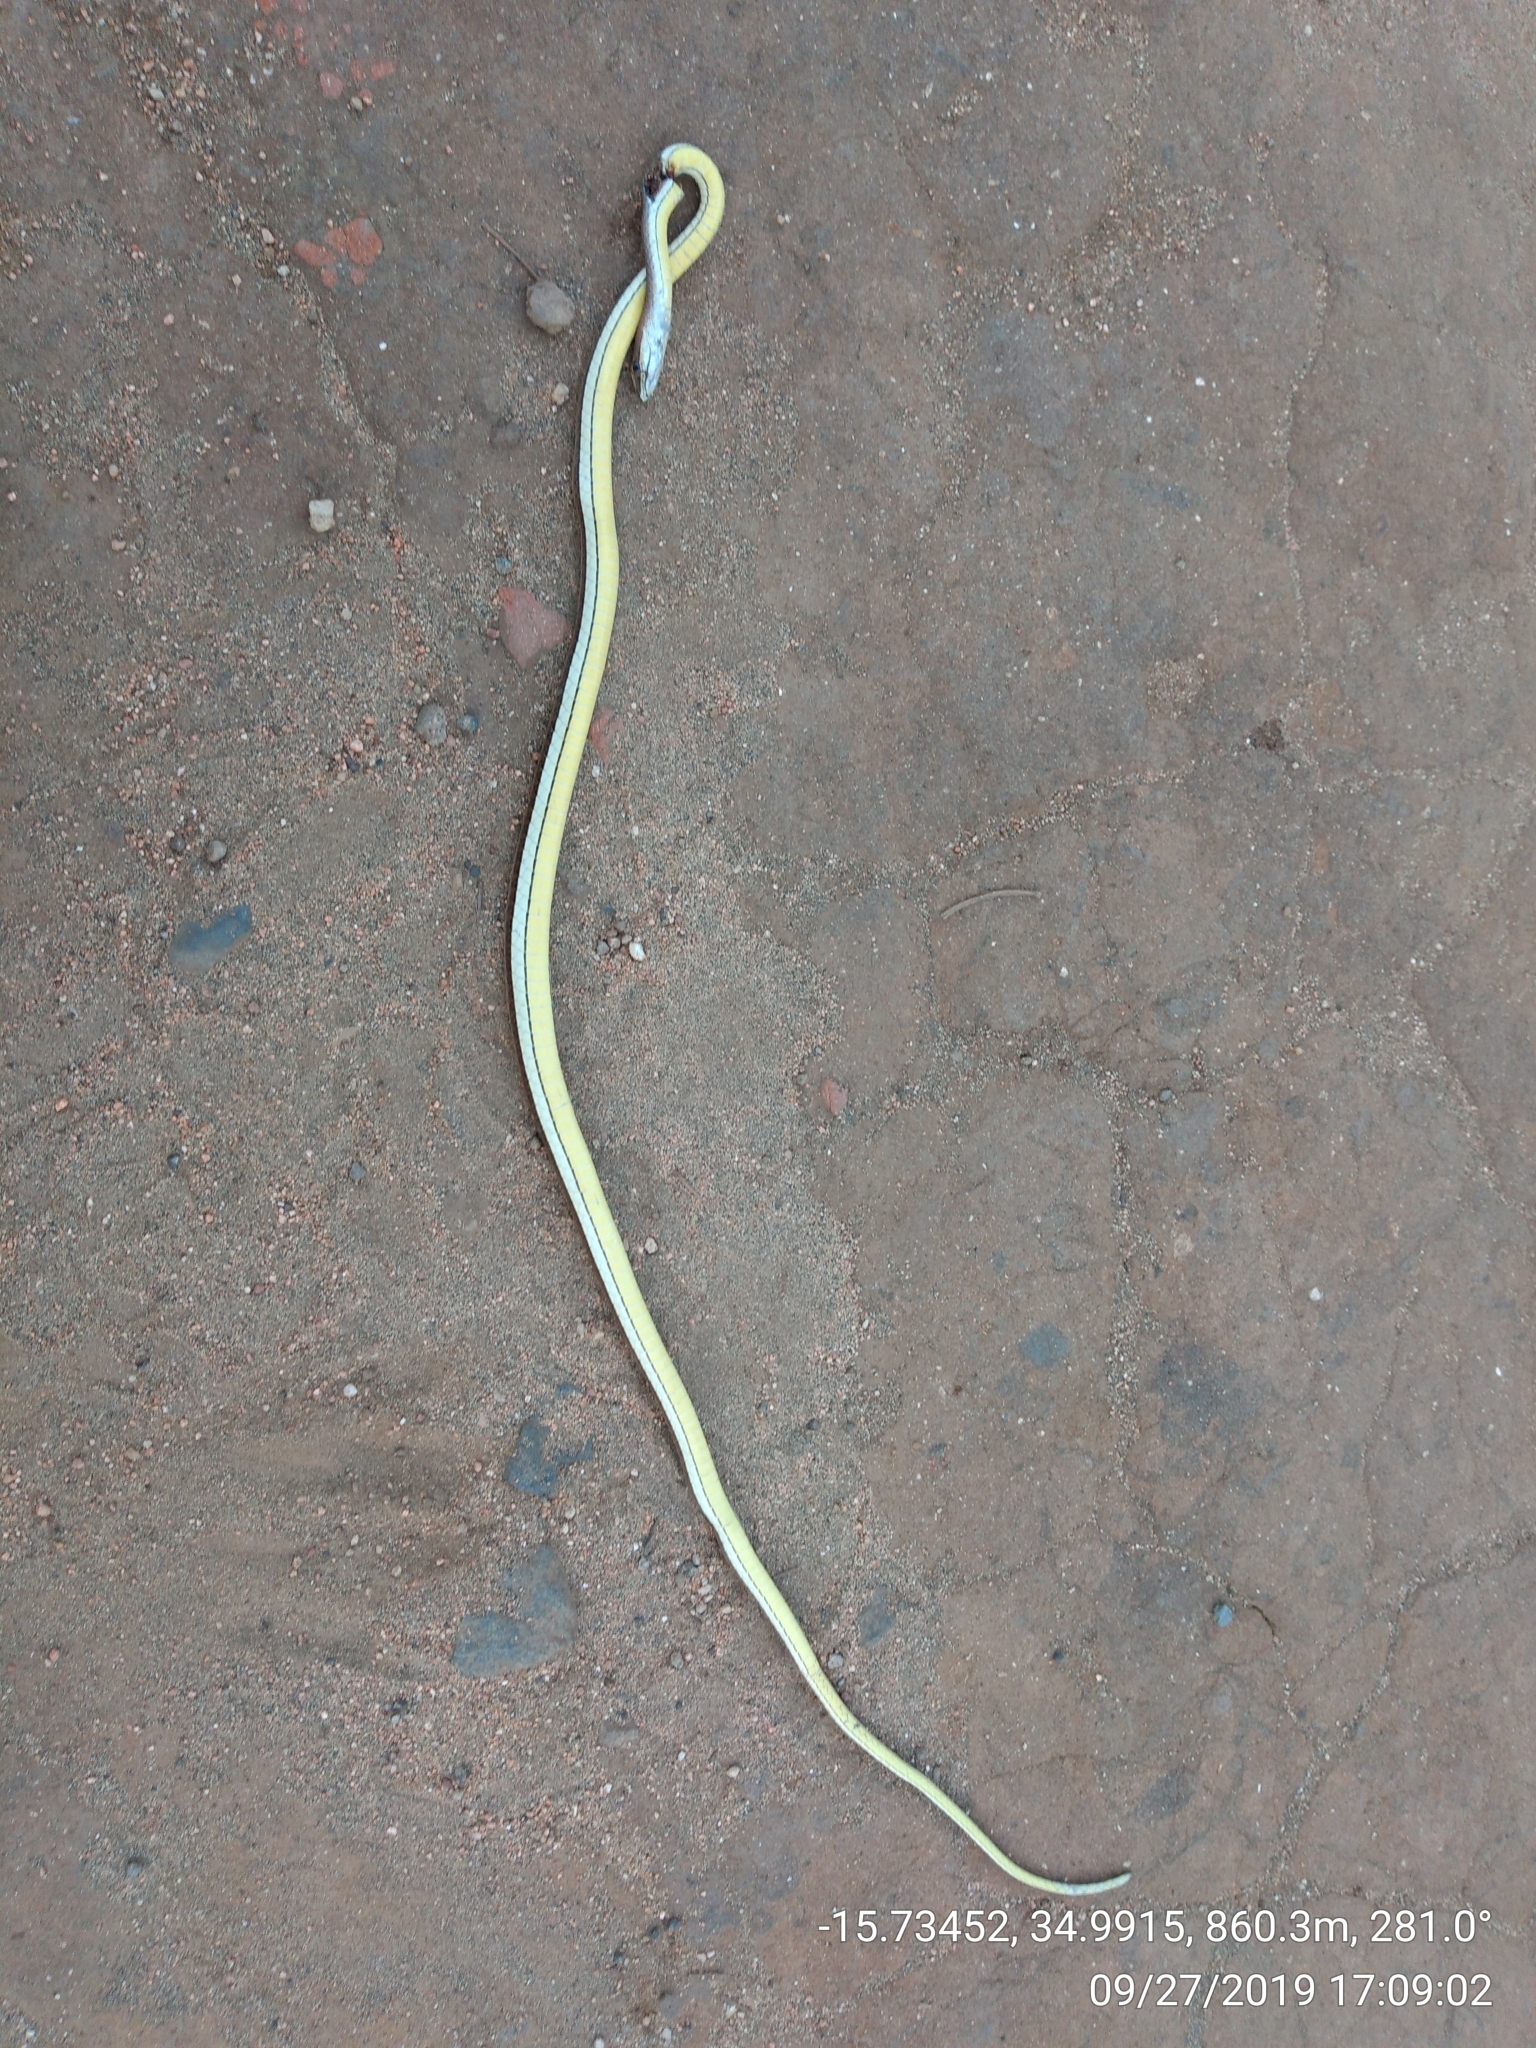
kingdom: Animalia
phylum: Chordata
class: Squamata
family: Psammophiidae
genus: Psammophis
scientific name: Psammophis orientalis
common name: Eastern stripe-bellied sand snake
